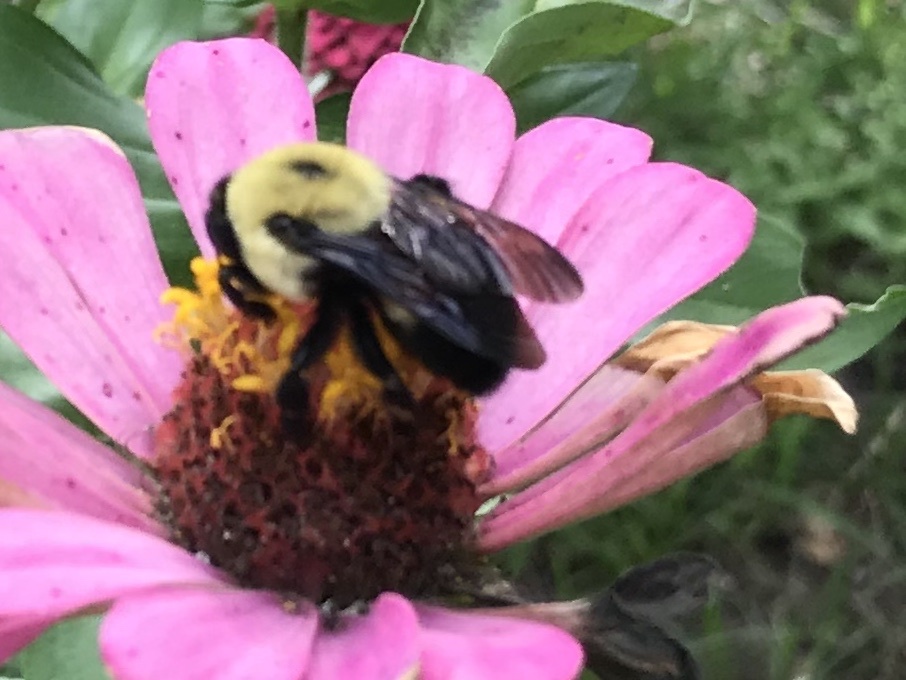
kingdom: Animalia
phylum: Arthropoda
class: Insecta
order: Hymenoptera
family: Apidae
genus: Bombus
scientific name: Bombus griseocollis
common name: Brown-belted bumble bee
